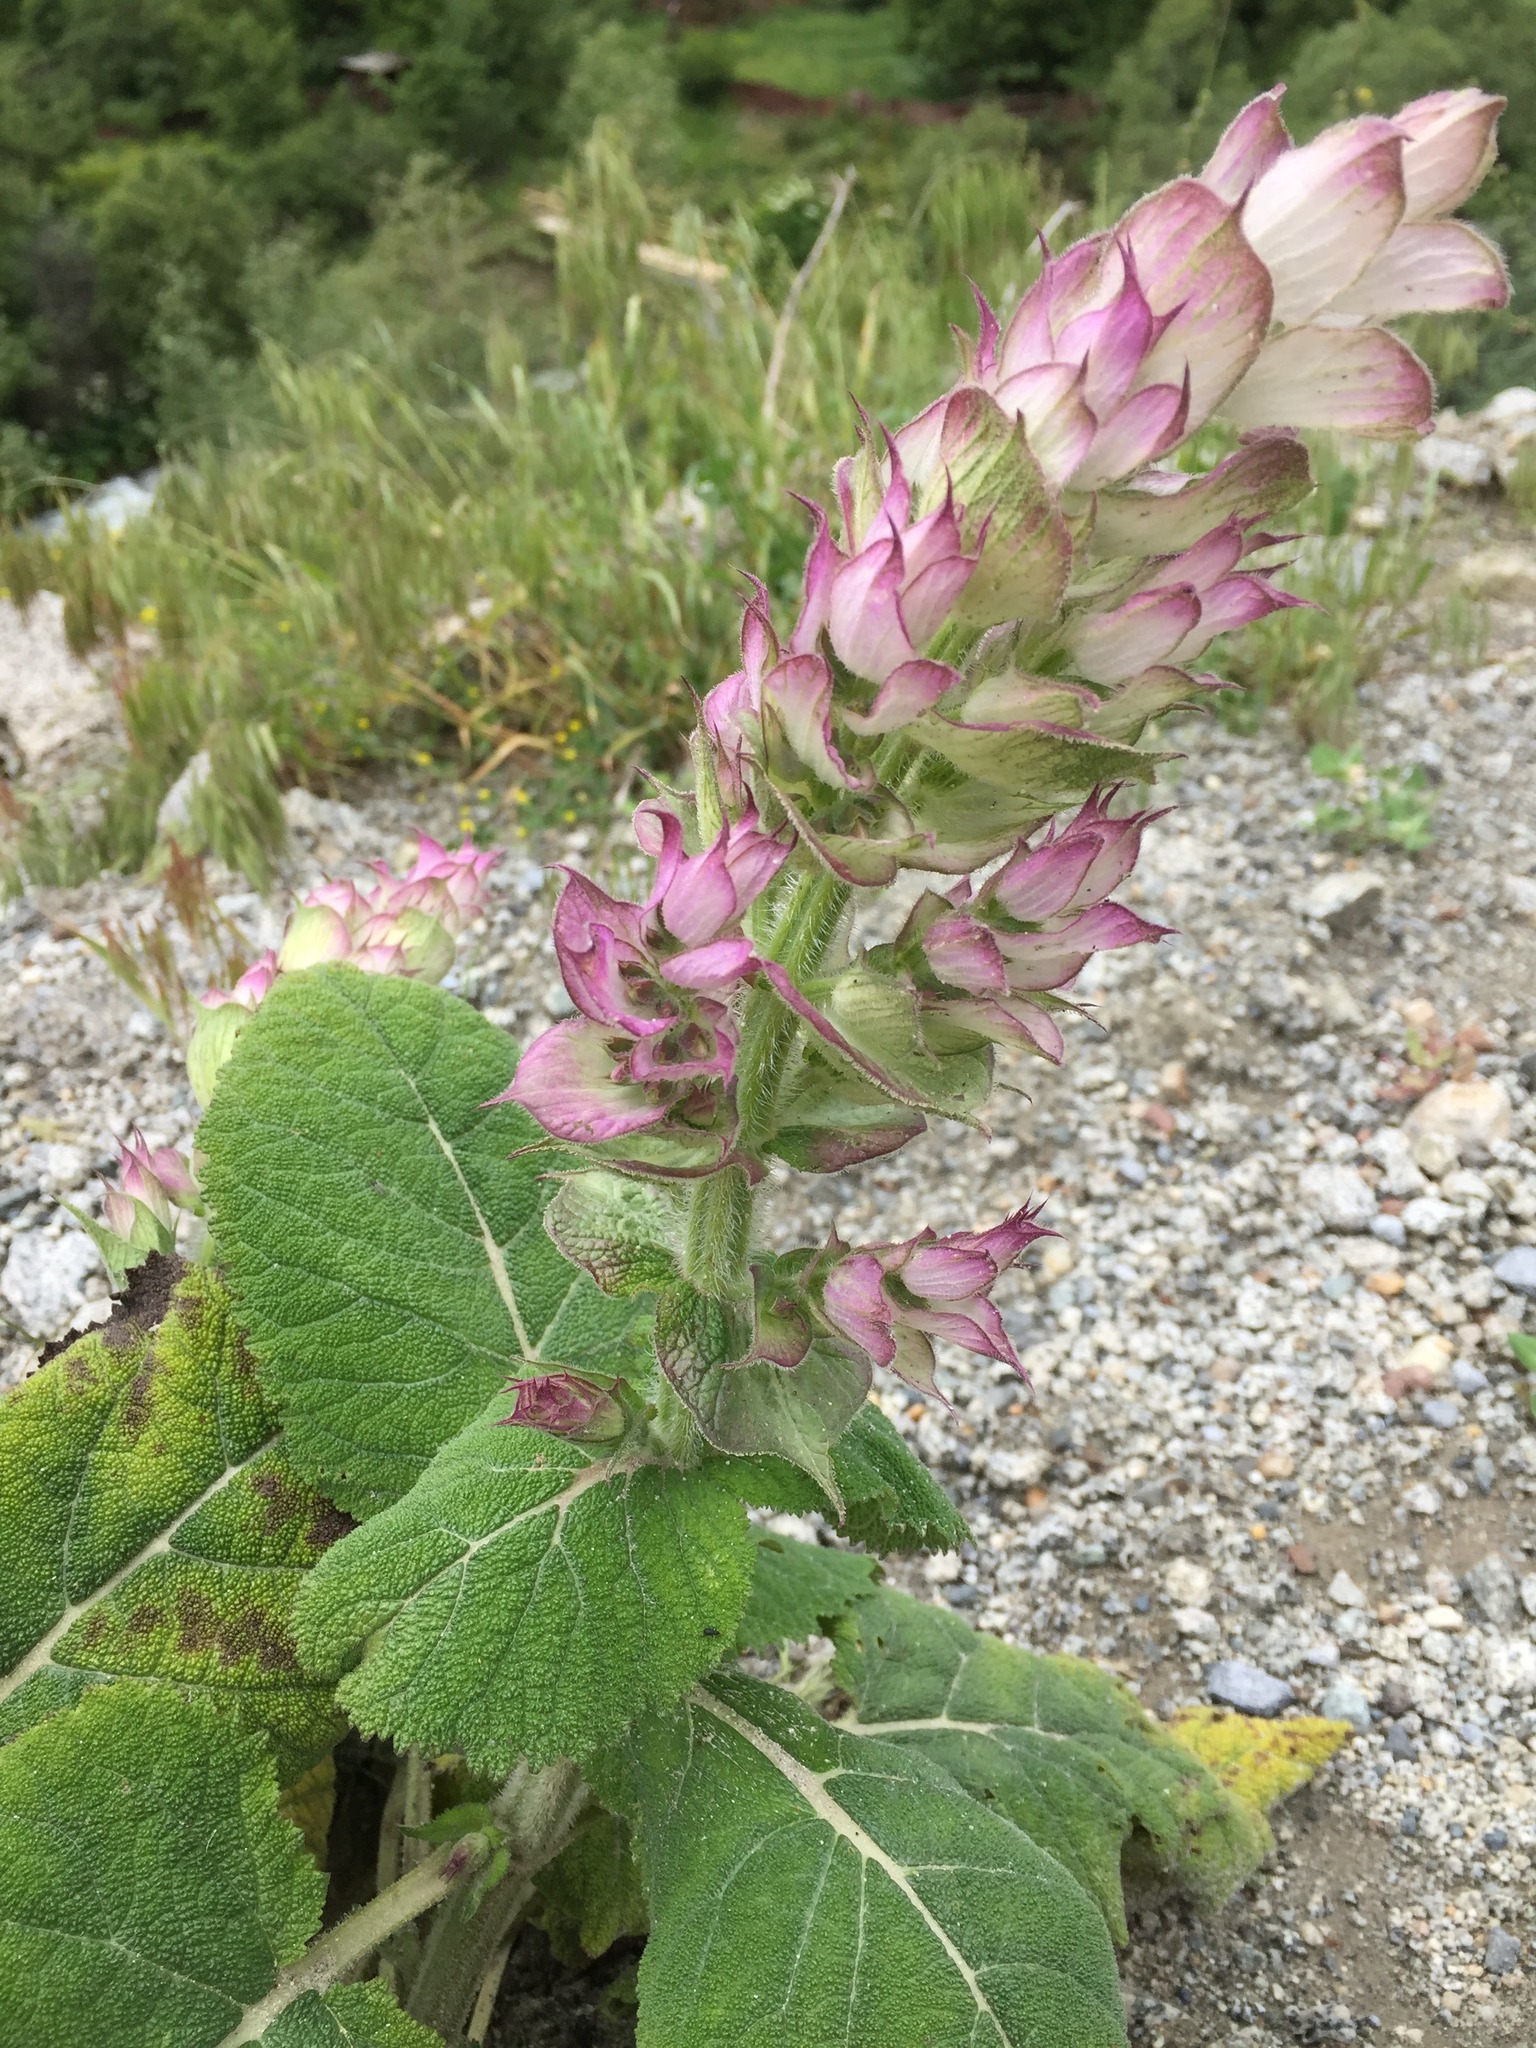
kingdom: Plantae
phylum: Tracheophyta
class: Magnoliopsida
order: Lamiales
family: Lamiaceae
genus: Salvia
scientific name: Salvia sclarea
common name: Clary
